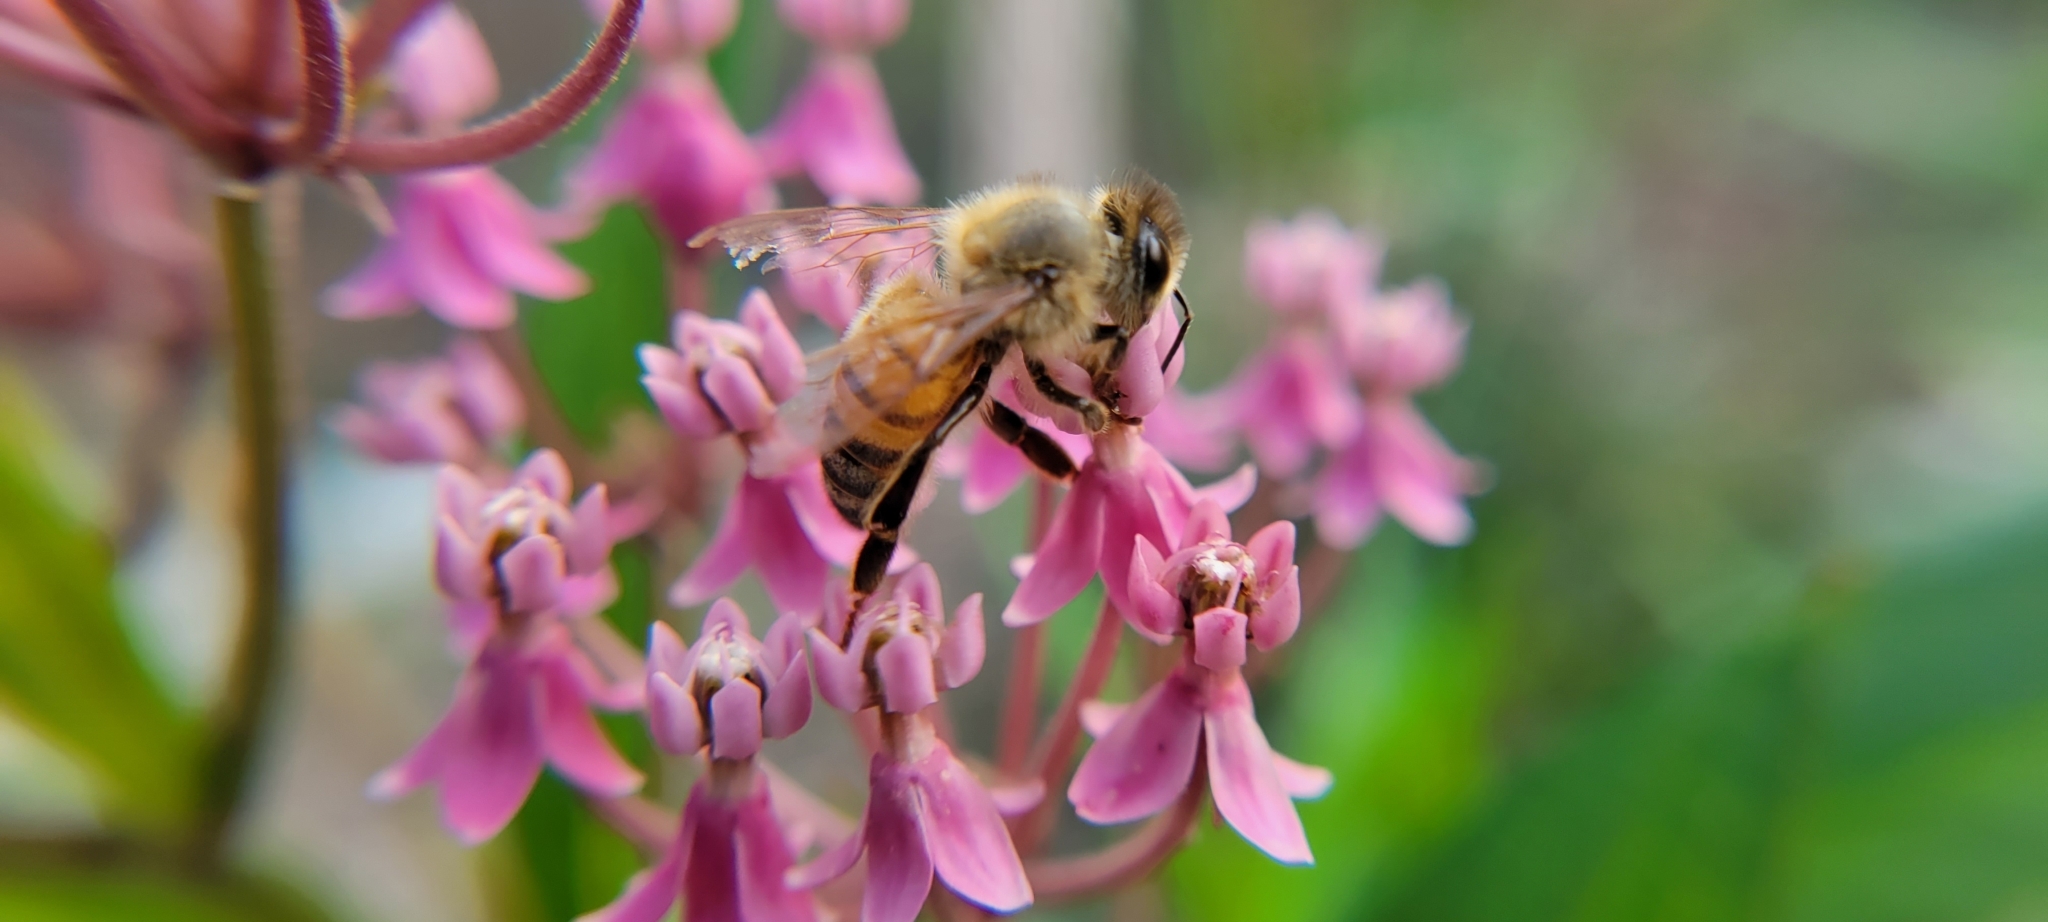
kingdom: Animalia
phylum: Arthropoda
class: Insecta
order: Hymenoptera
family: Apidae
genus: Apis
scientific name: Apis mellifera
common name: Honey bee
